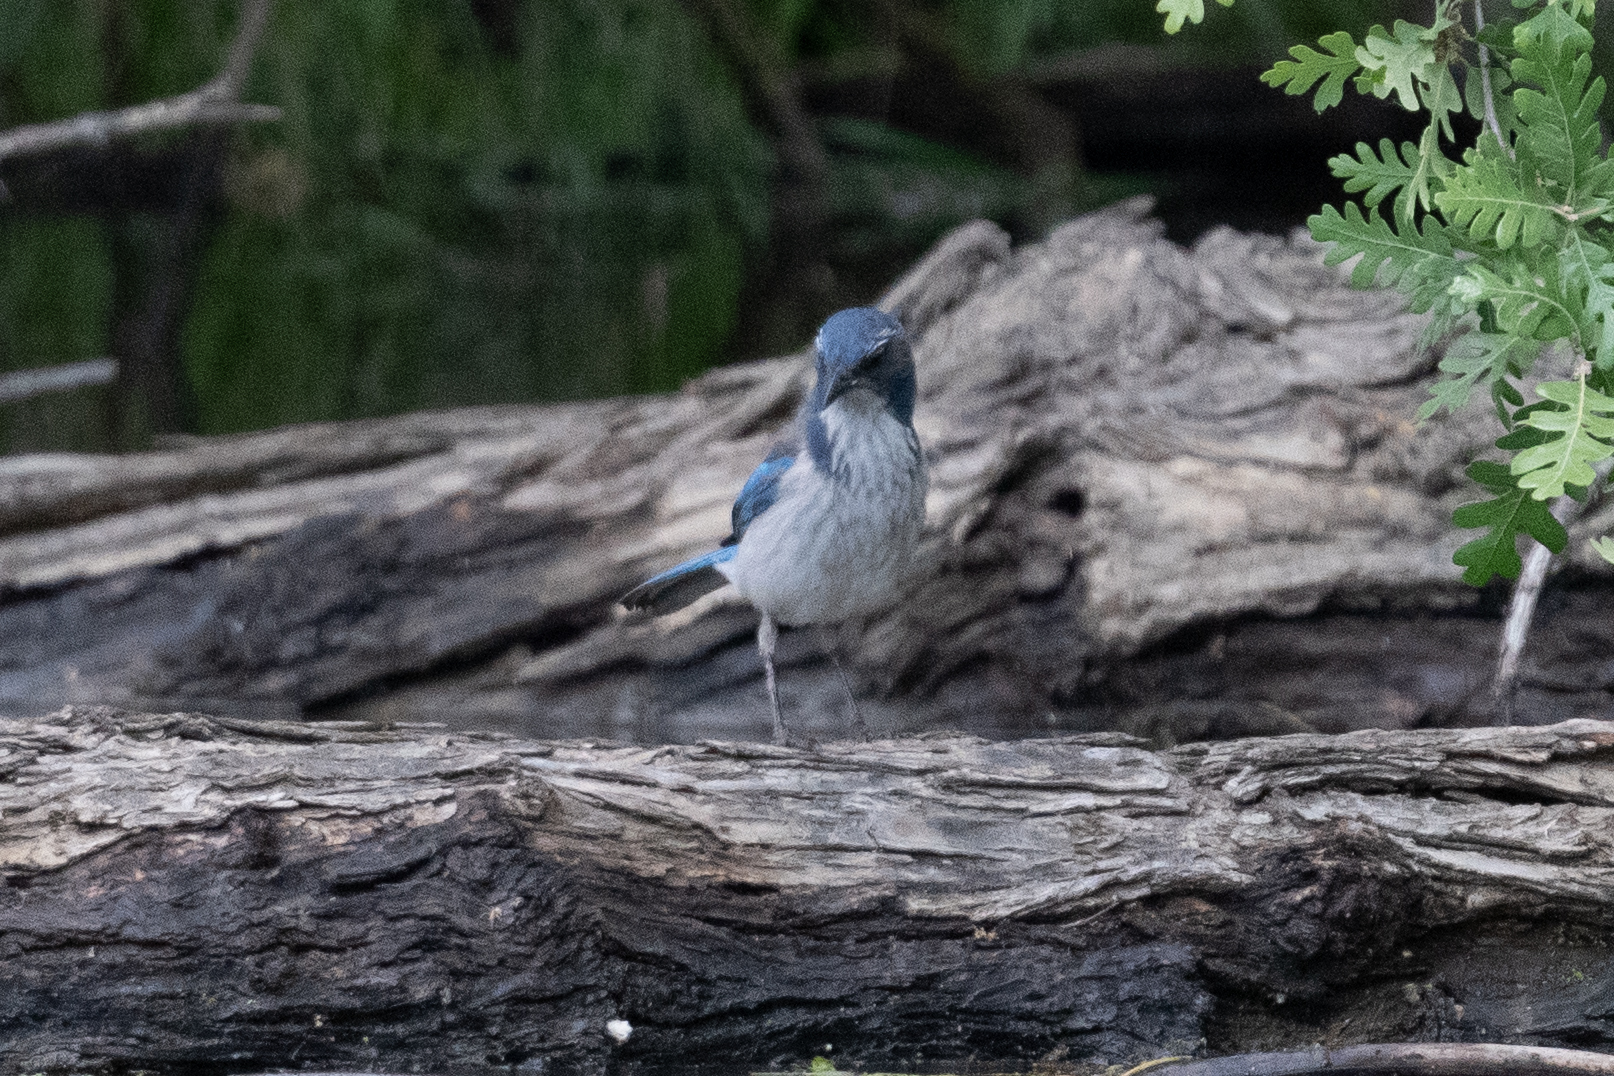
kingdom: Animalia
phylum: Chordata
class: Aves
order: Passeriformes
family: Corvidae
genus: Aphelocoma
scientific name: Aphelocoma californica
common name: California scrub-jay
